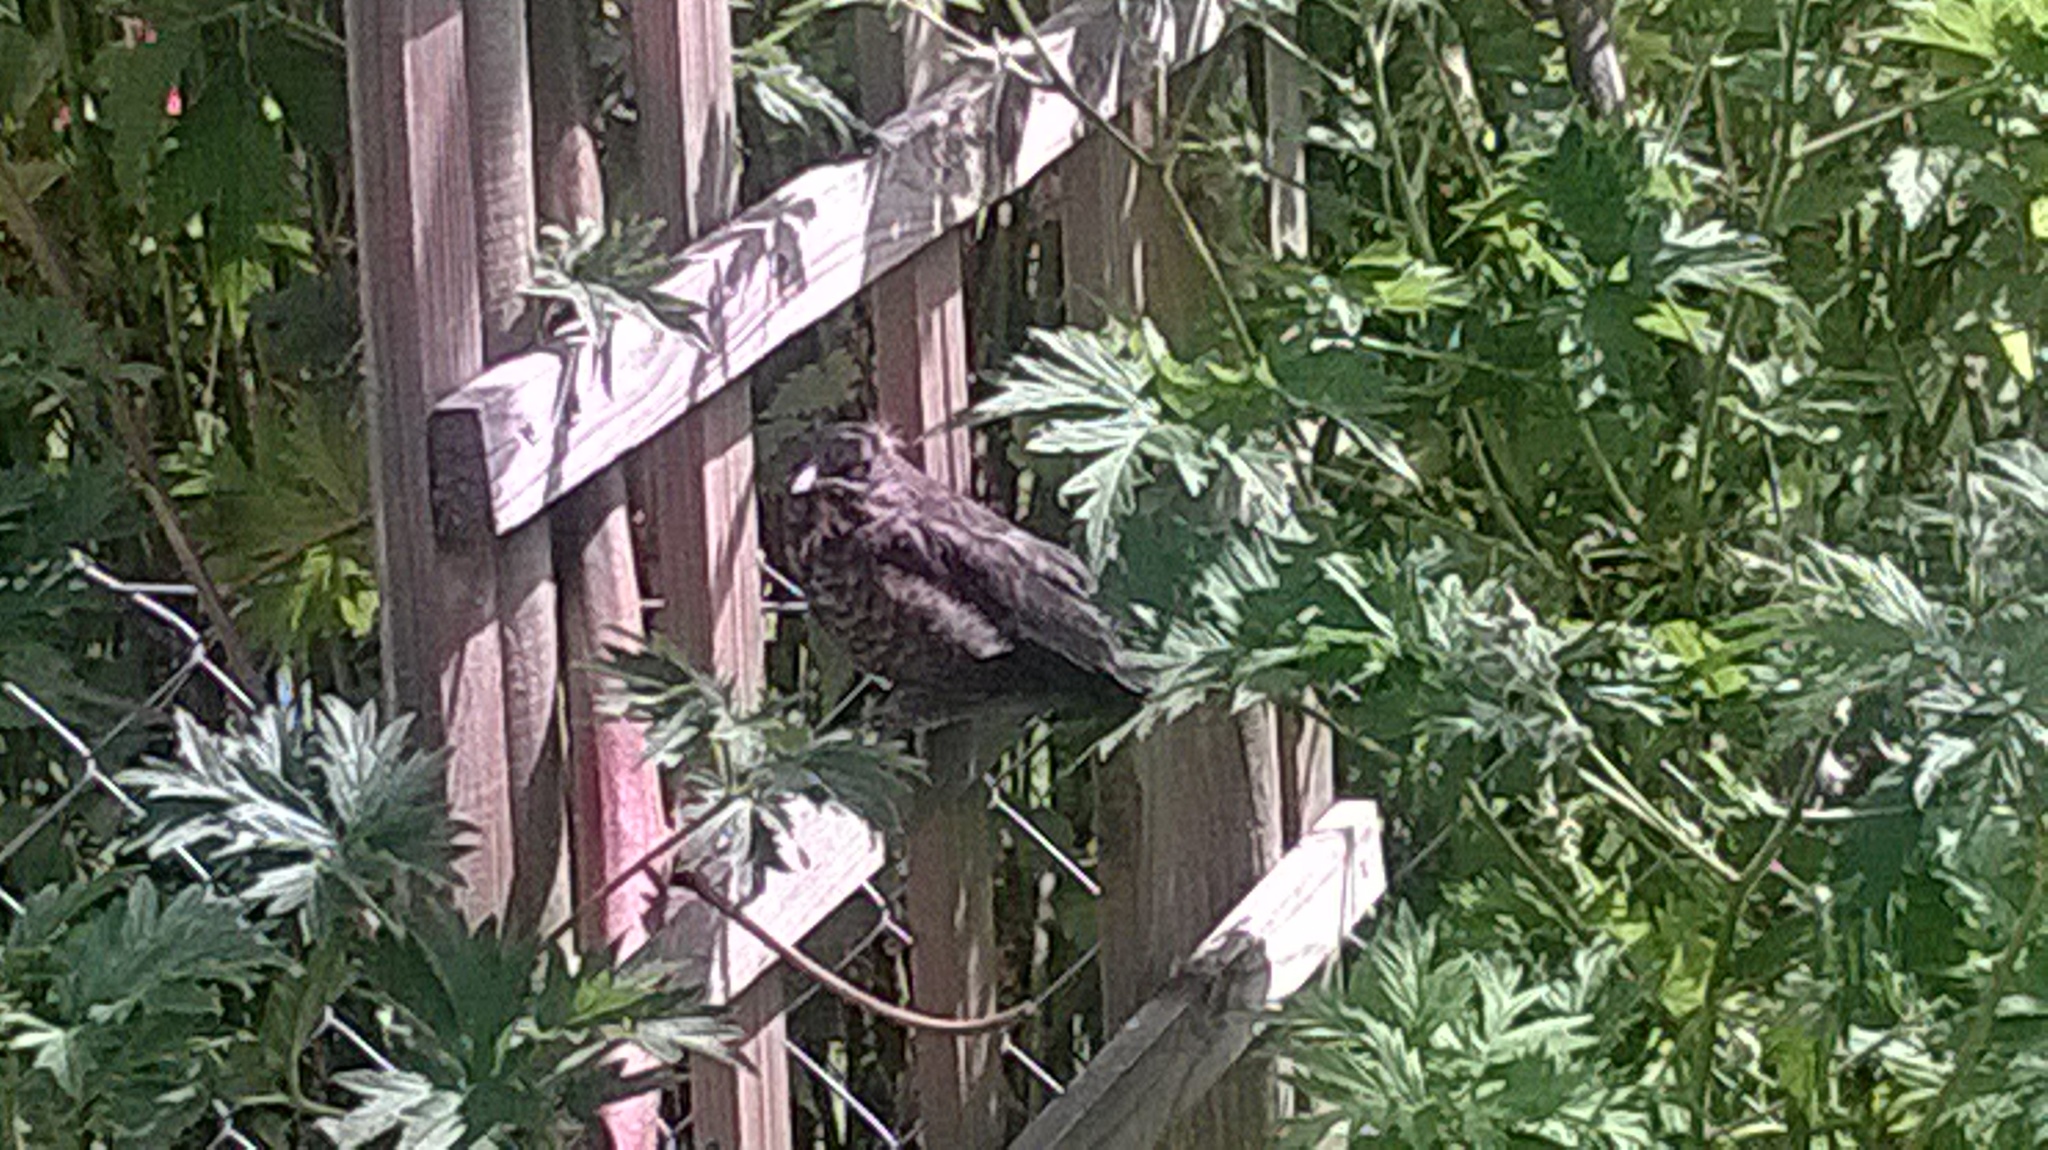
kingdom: Animalia
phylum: Chordata
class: Aves
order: Passeriformes
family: Turdidae
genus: Turdus
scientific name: Turdus merula
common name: Common blackbird
